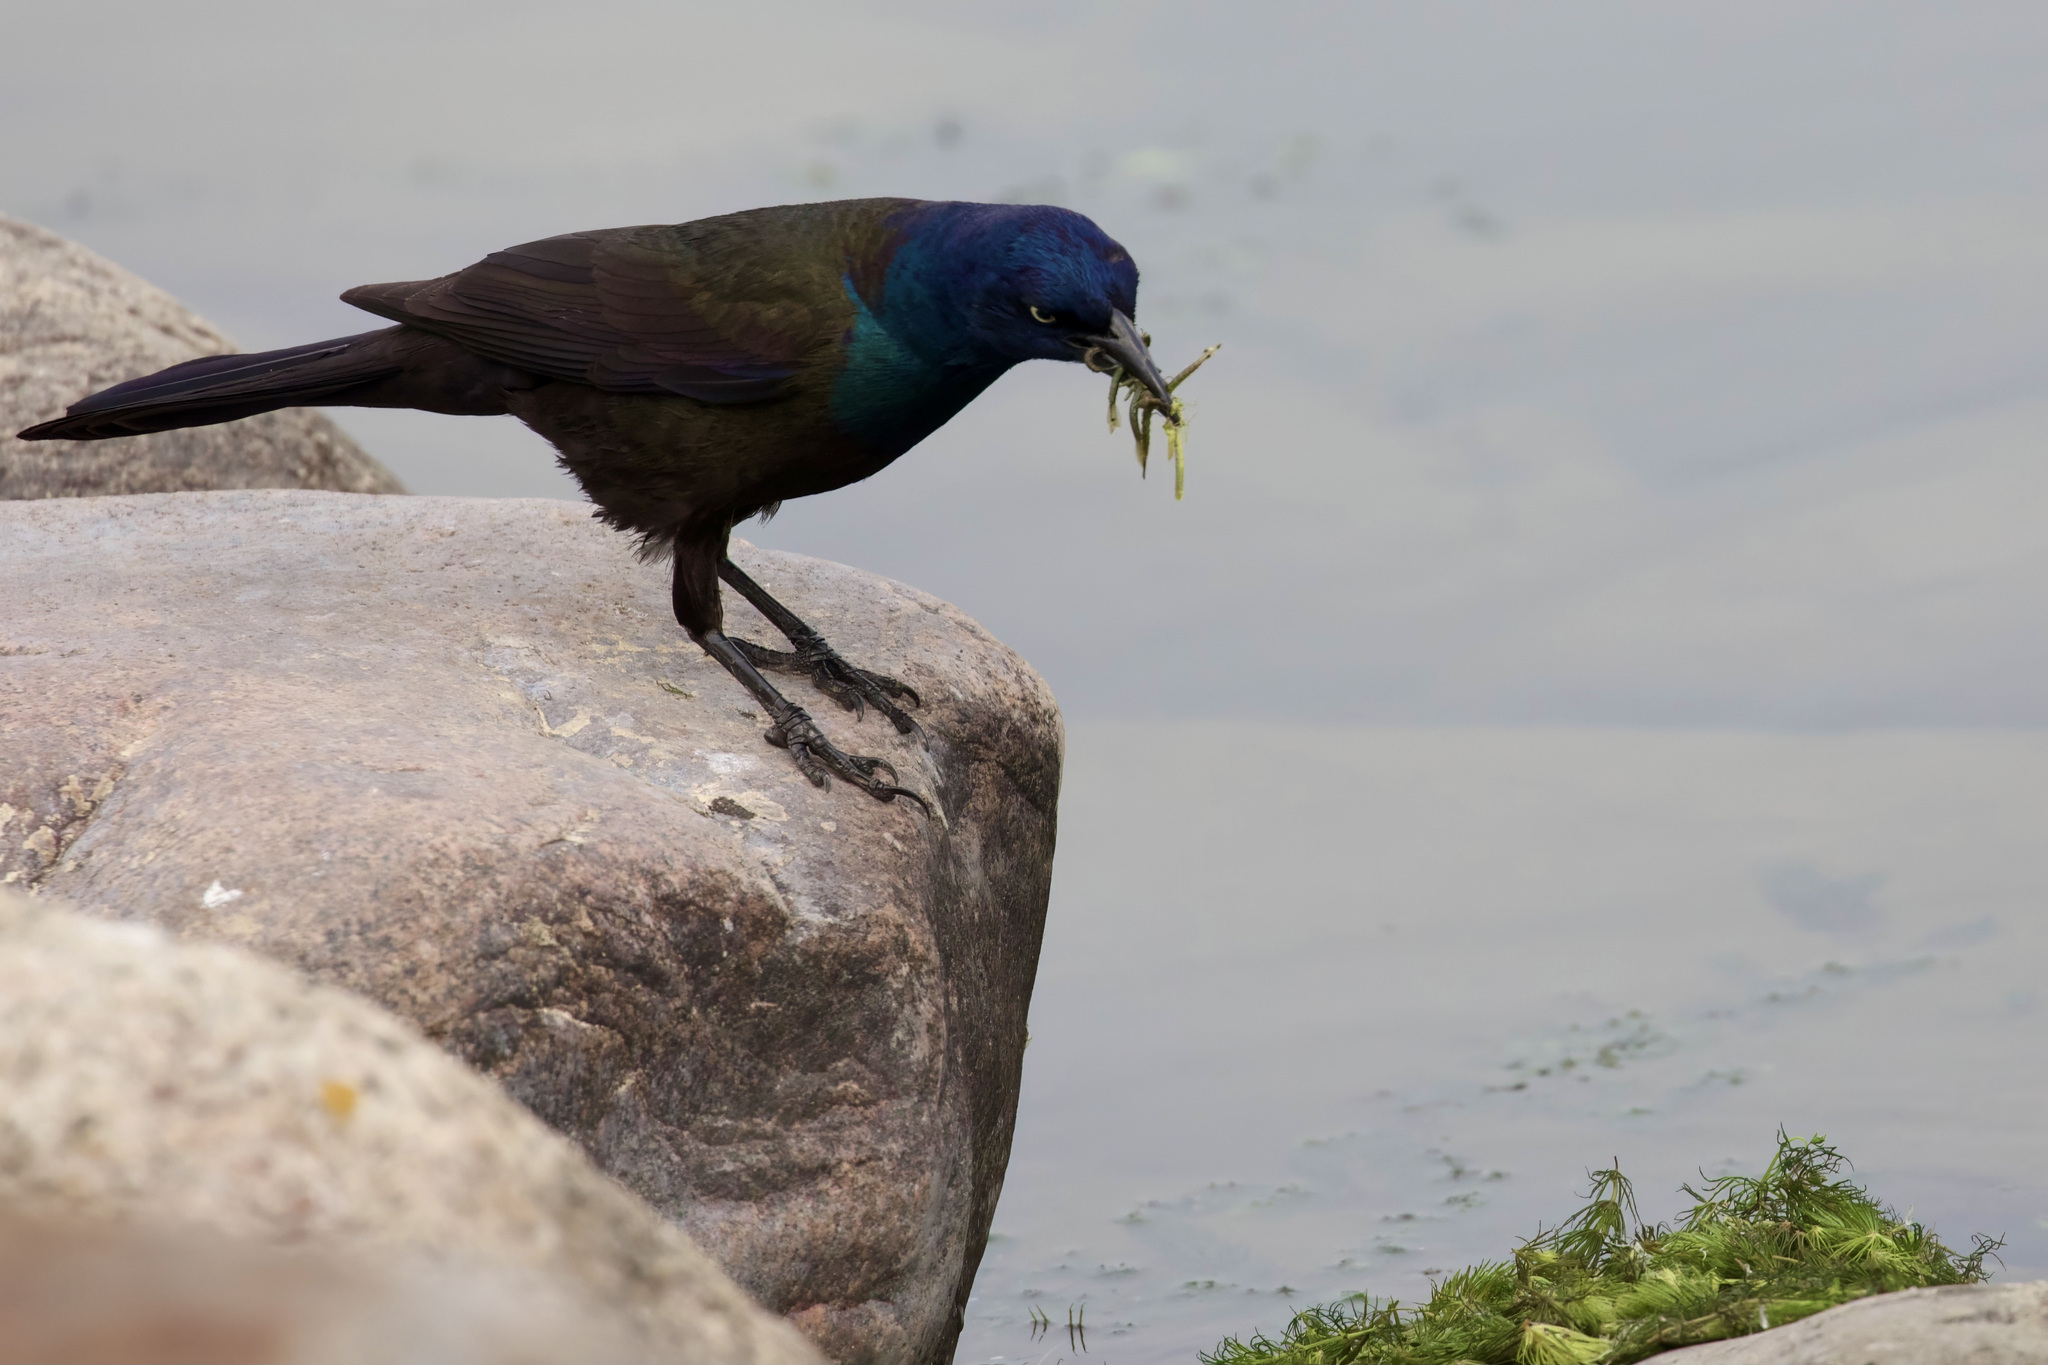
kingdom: Animalia
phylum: Chordata
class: Aves
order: Passeriformes
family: Icteridae
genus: Quiscalus
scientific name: Quiscalus quiscula
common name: Common grackle
